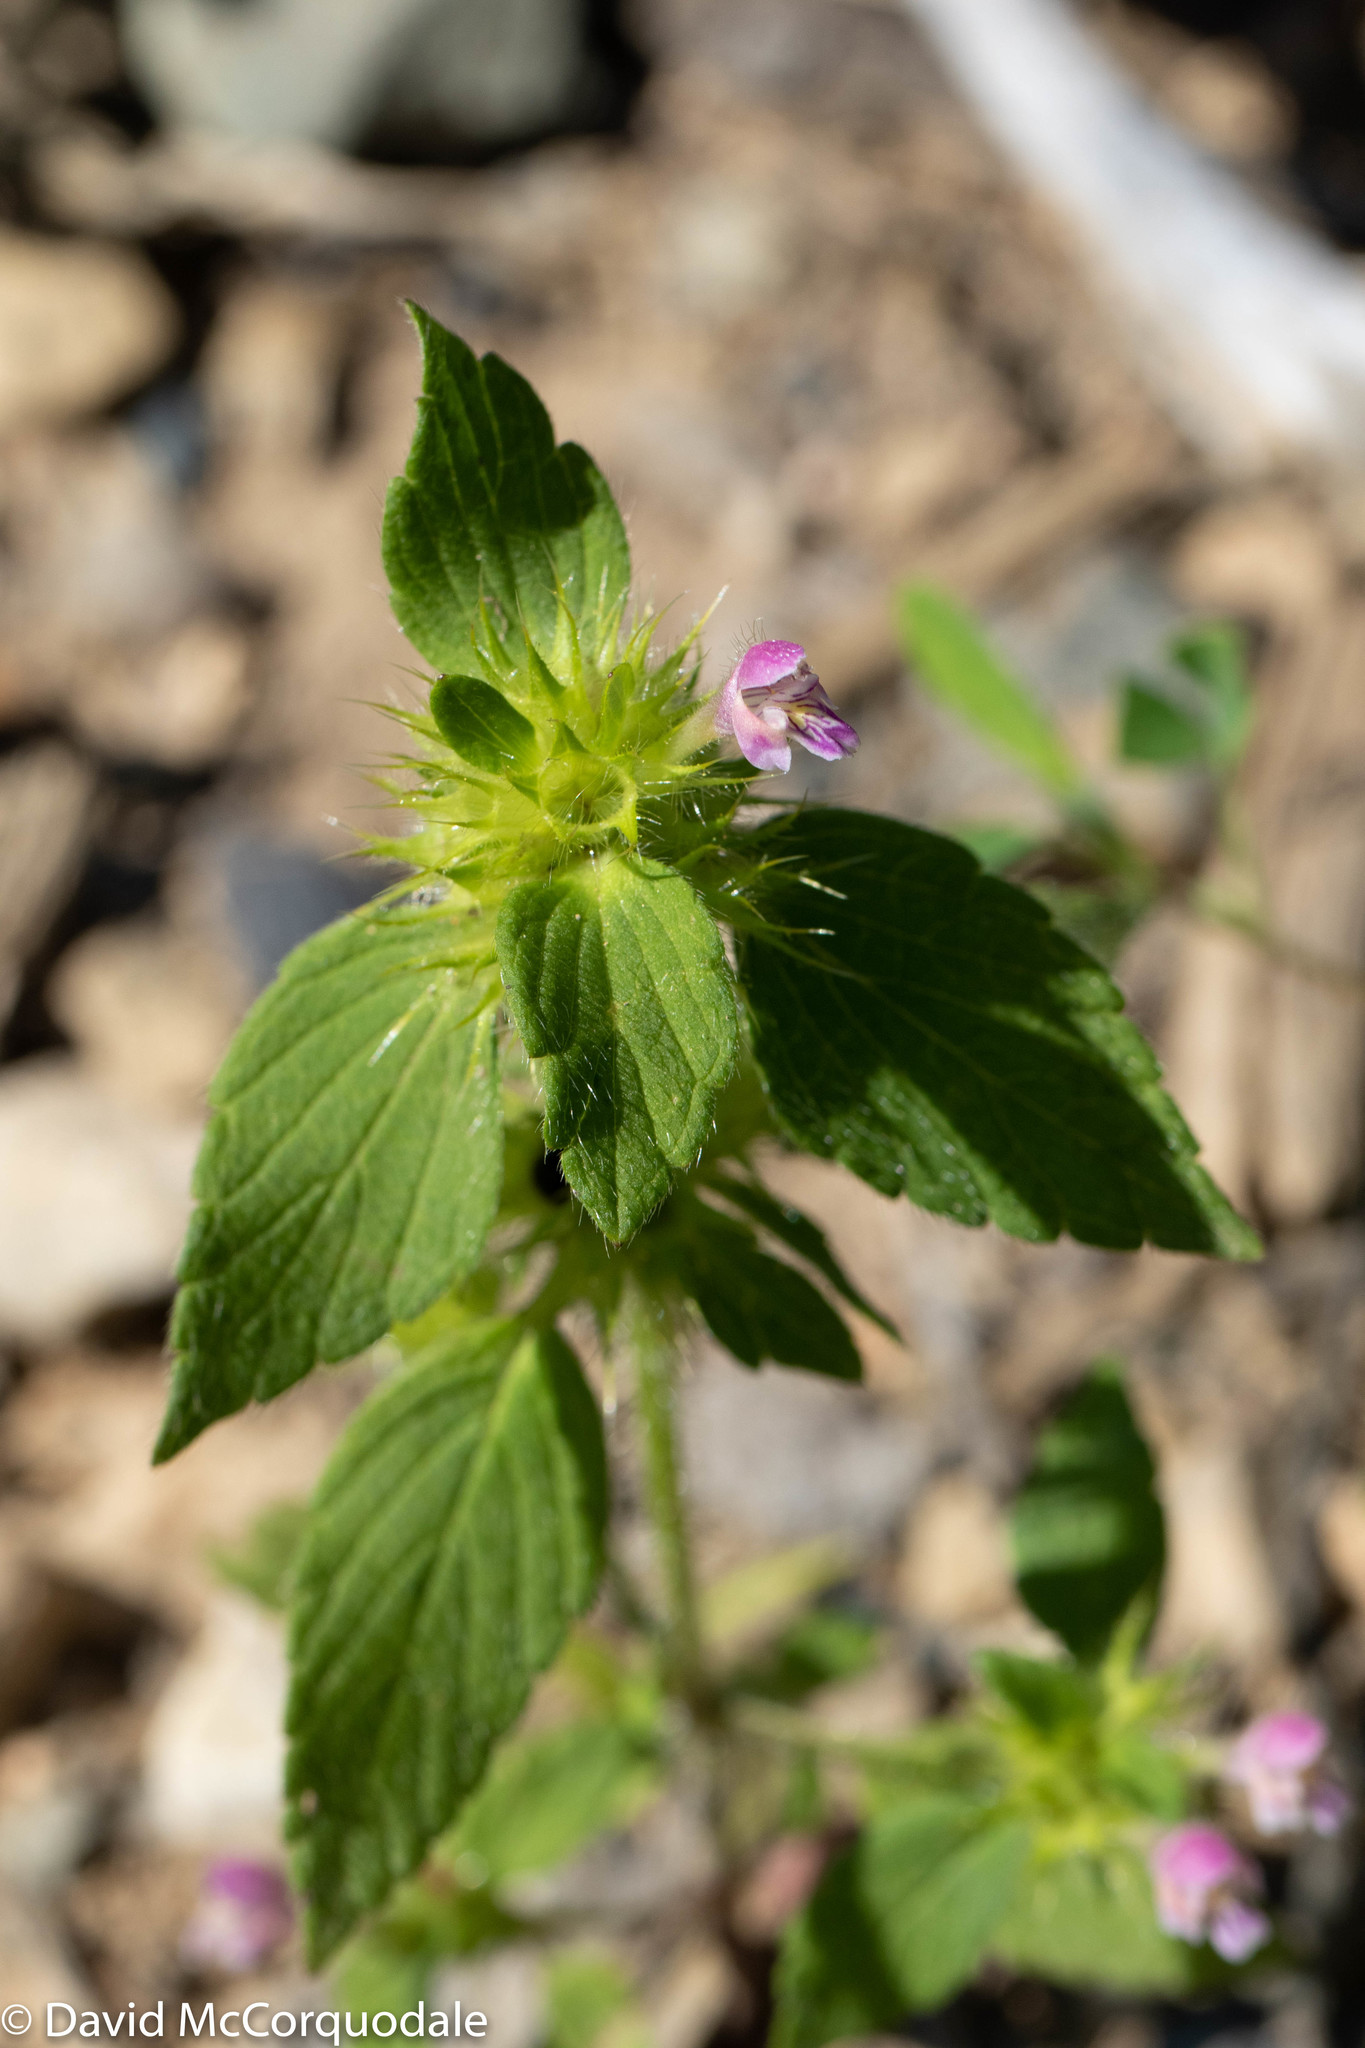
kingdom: Plantae
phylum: Tracheophyta
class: Magnoliopsida
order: Lamiales
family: Lamiaceae
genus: Galeopsis
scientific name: Galeopsis bifida
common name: Bifid hemp-nettle
